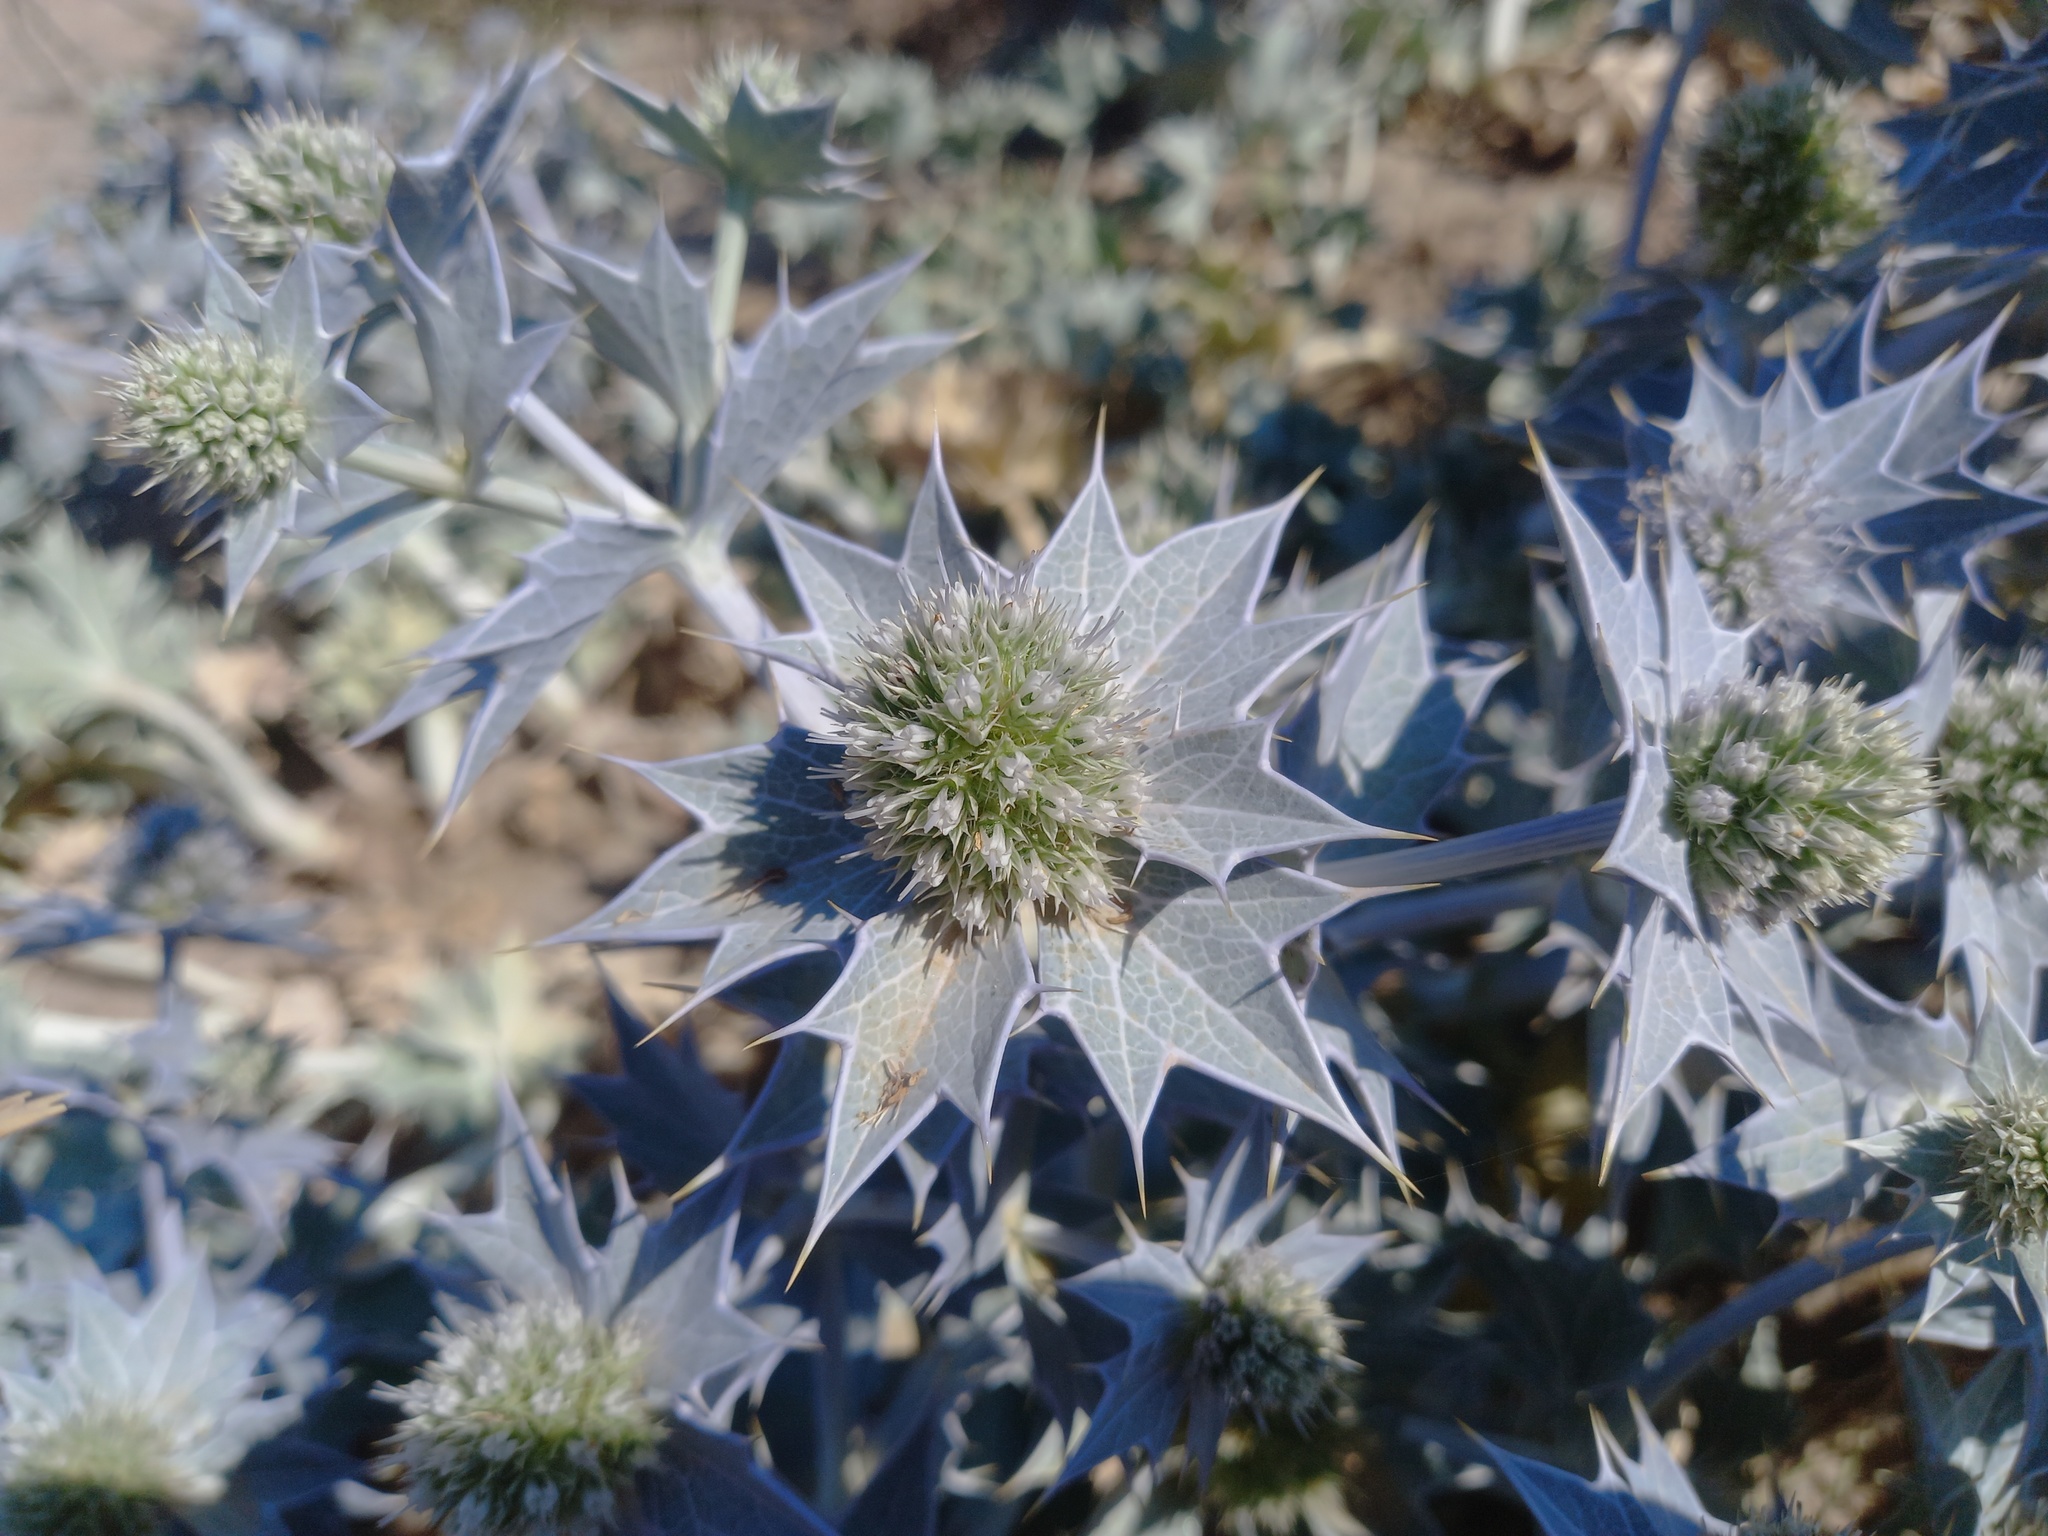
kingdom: Plantae
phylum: Tracheophyta
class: Magnoliopsida
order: Apiales
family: Apiaceae
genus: Eryngium
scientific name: Eryngium maritimum
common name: Sea-holly
